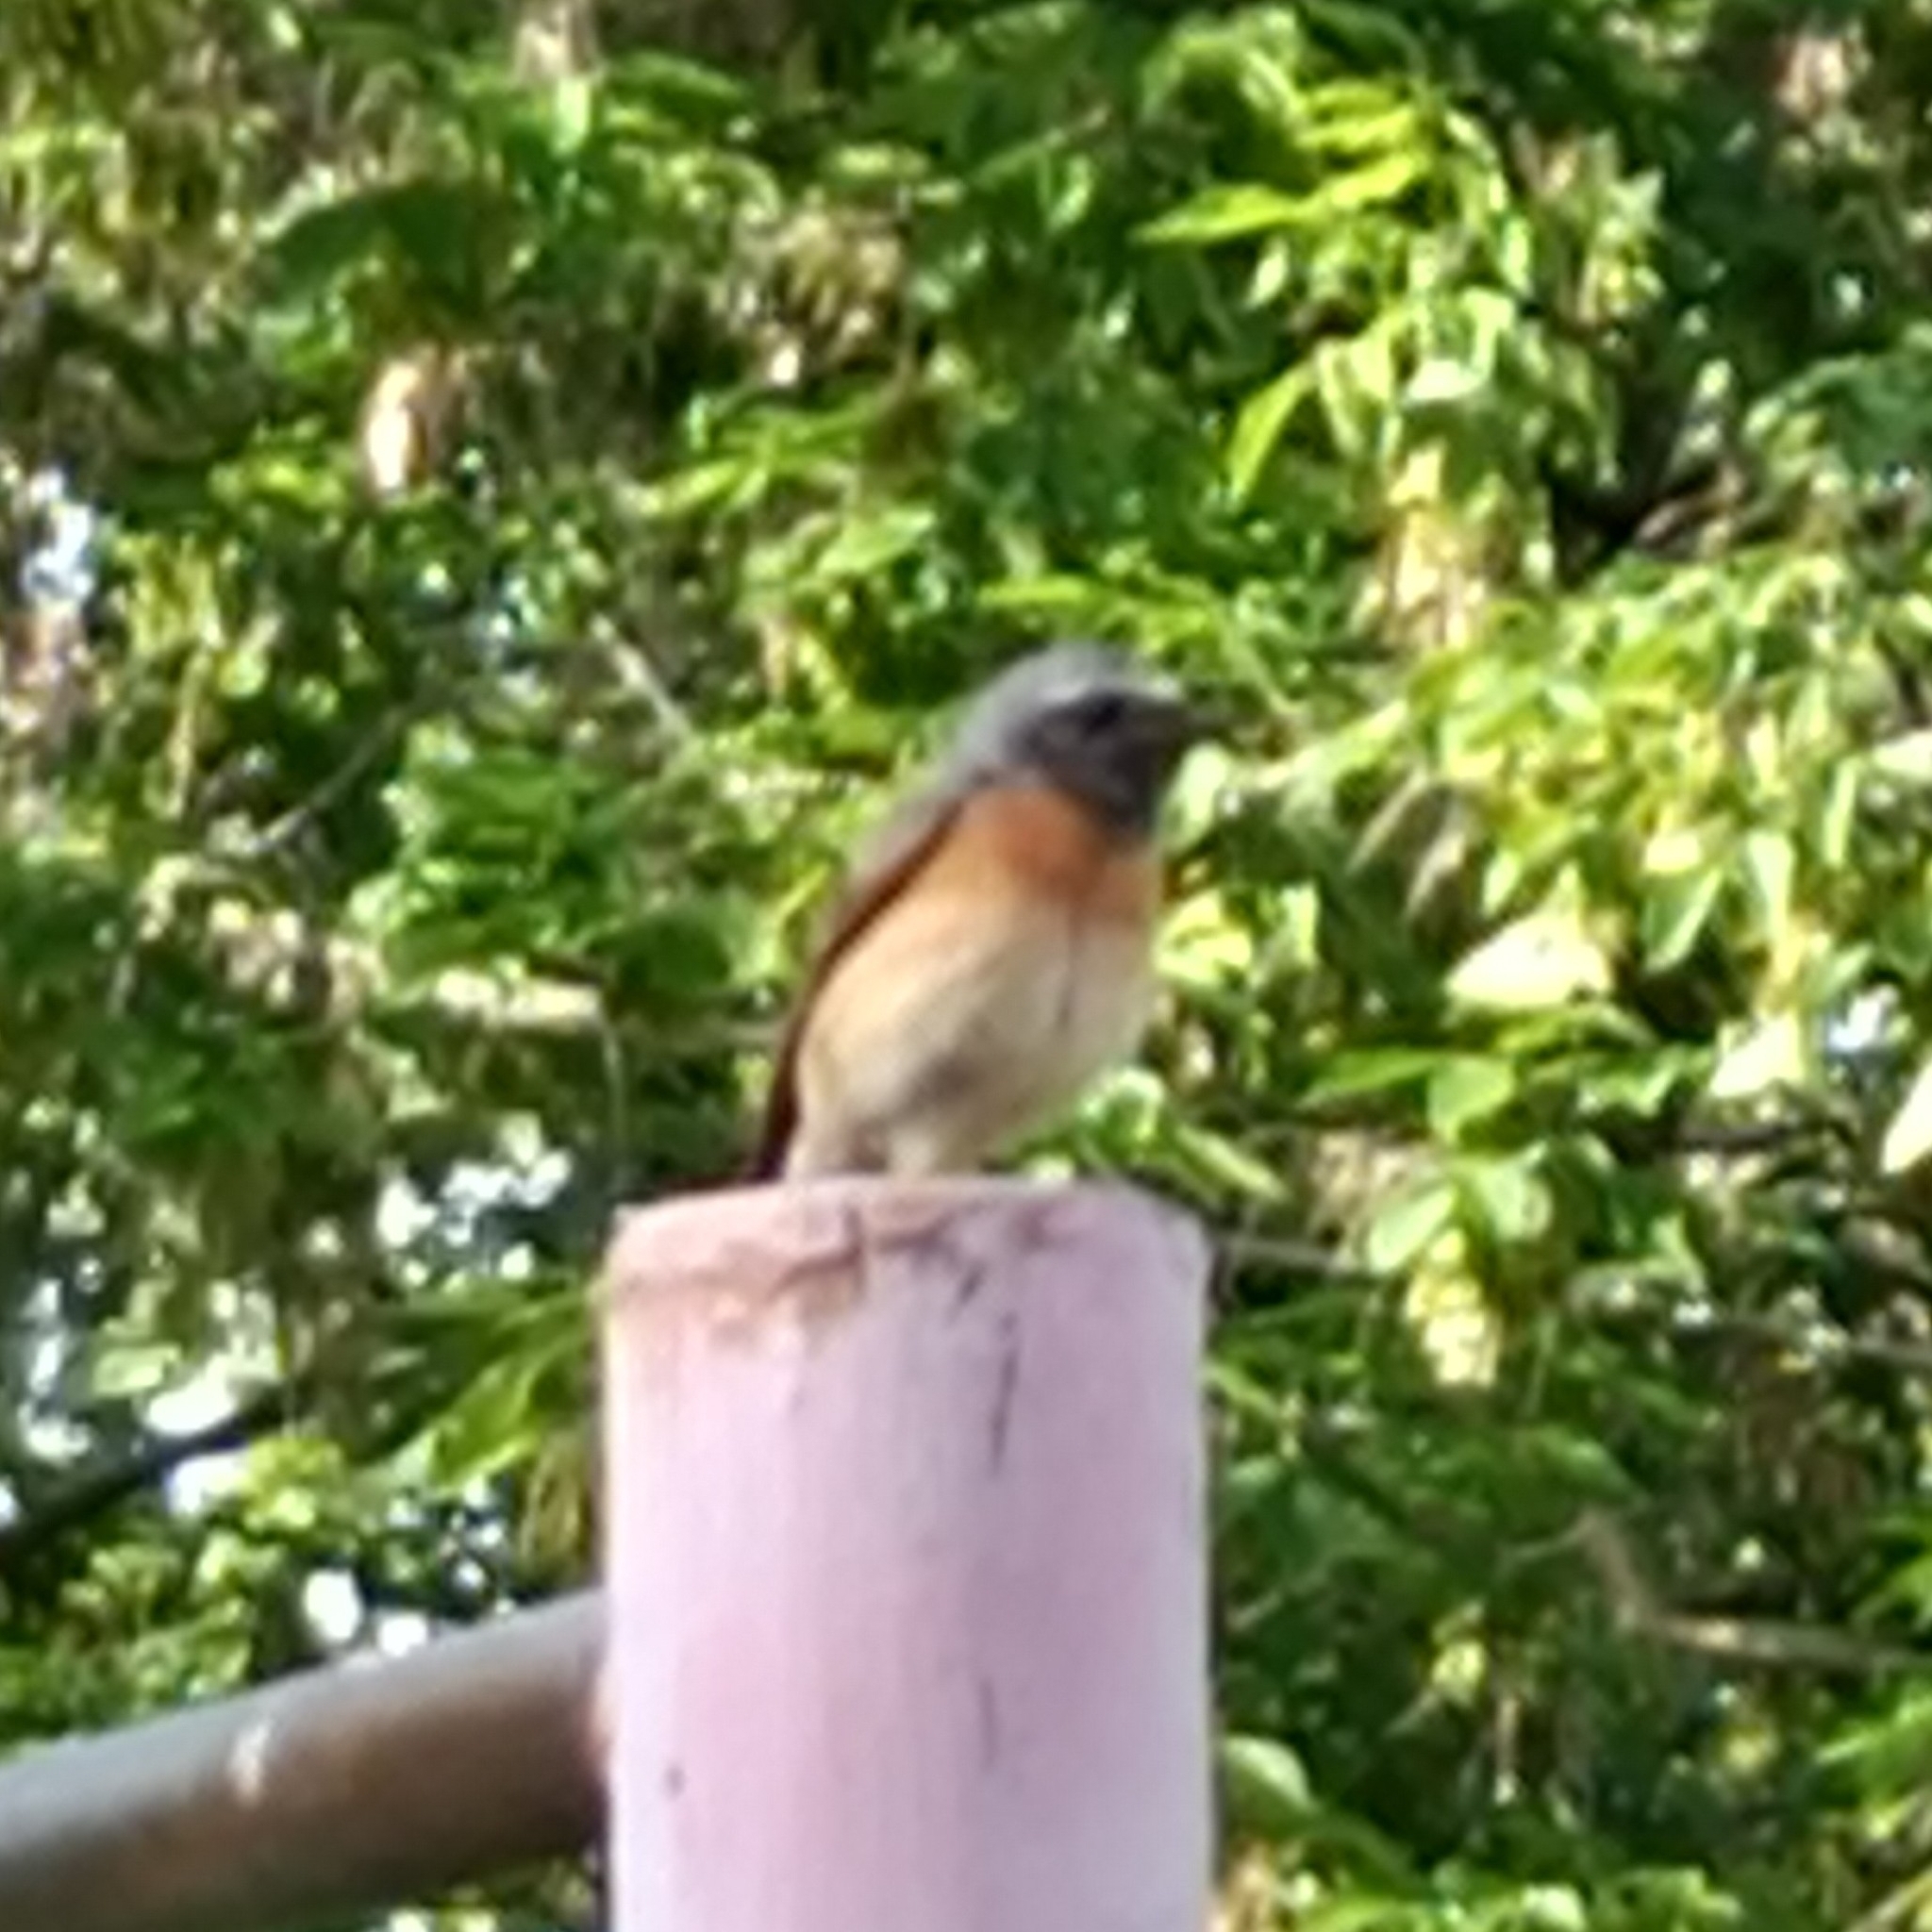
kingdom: Animalia
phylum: Chordata
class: Aves
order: Passeriformes
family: Muscicapidae
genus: Phoenicurus
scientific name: Phoenicurus phoenicurus
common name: Common redstart
